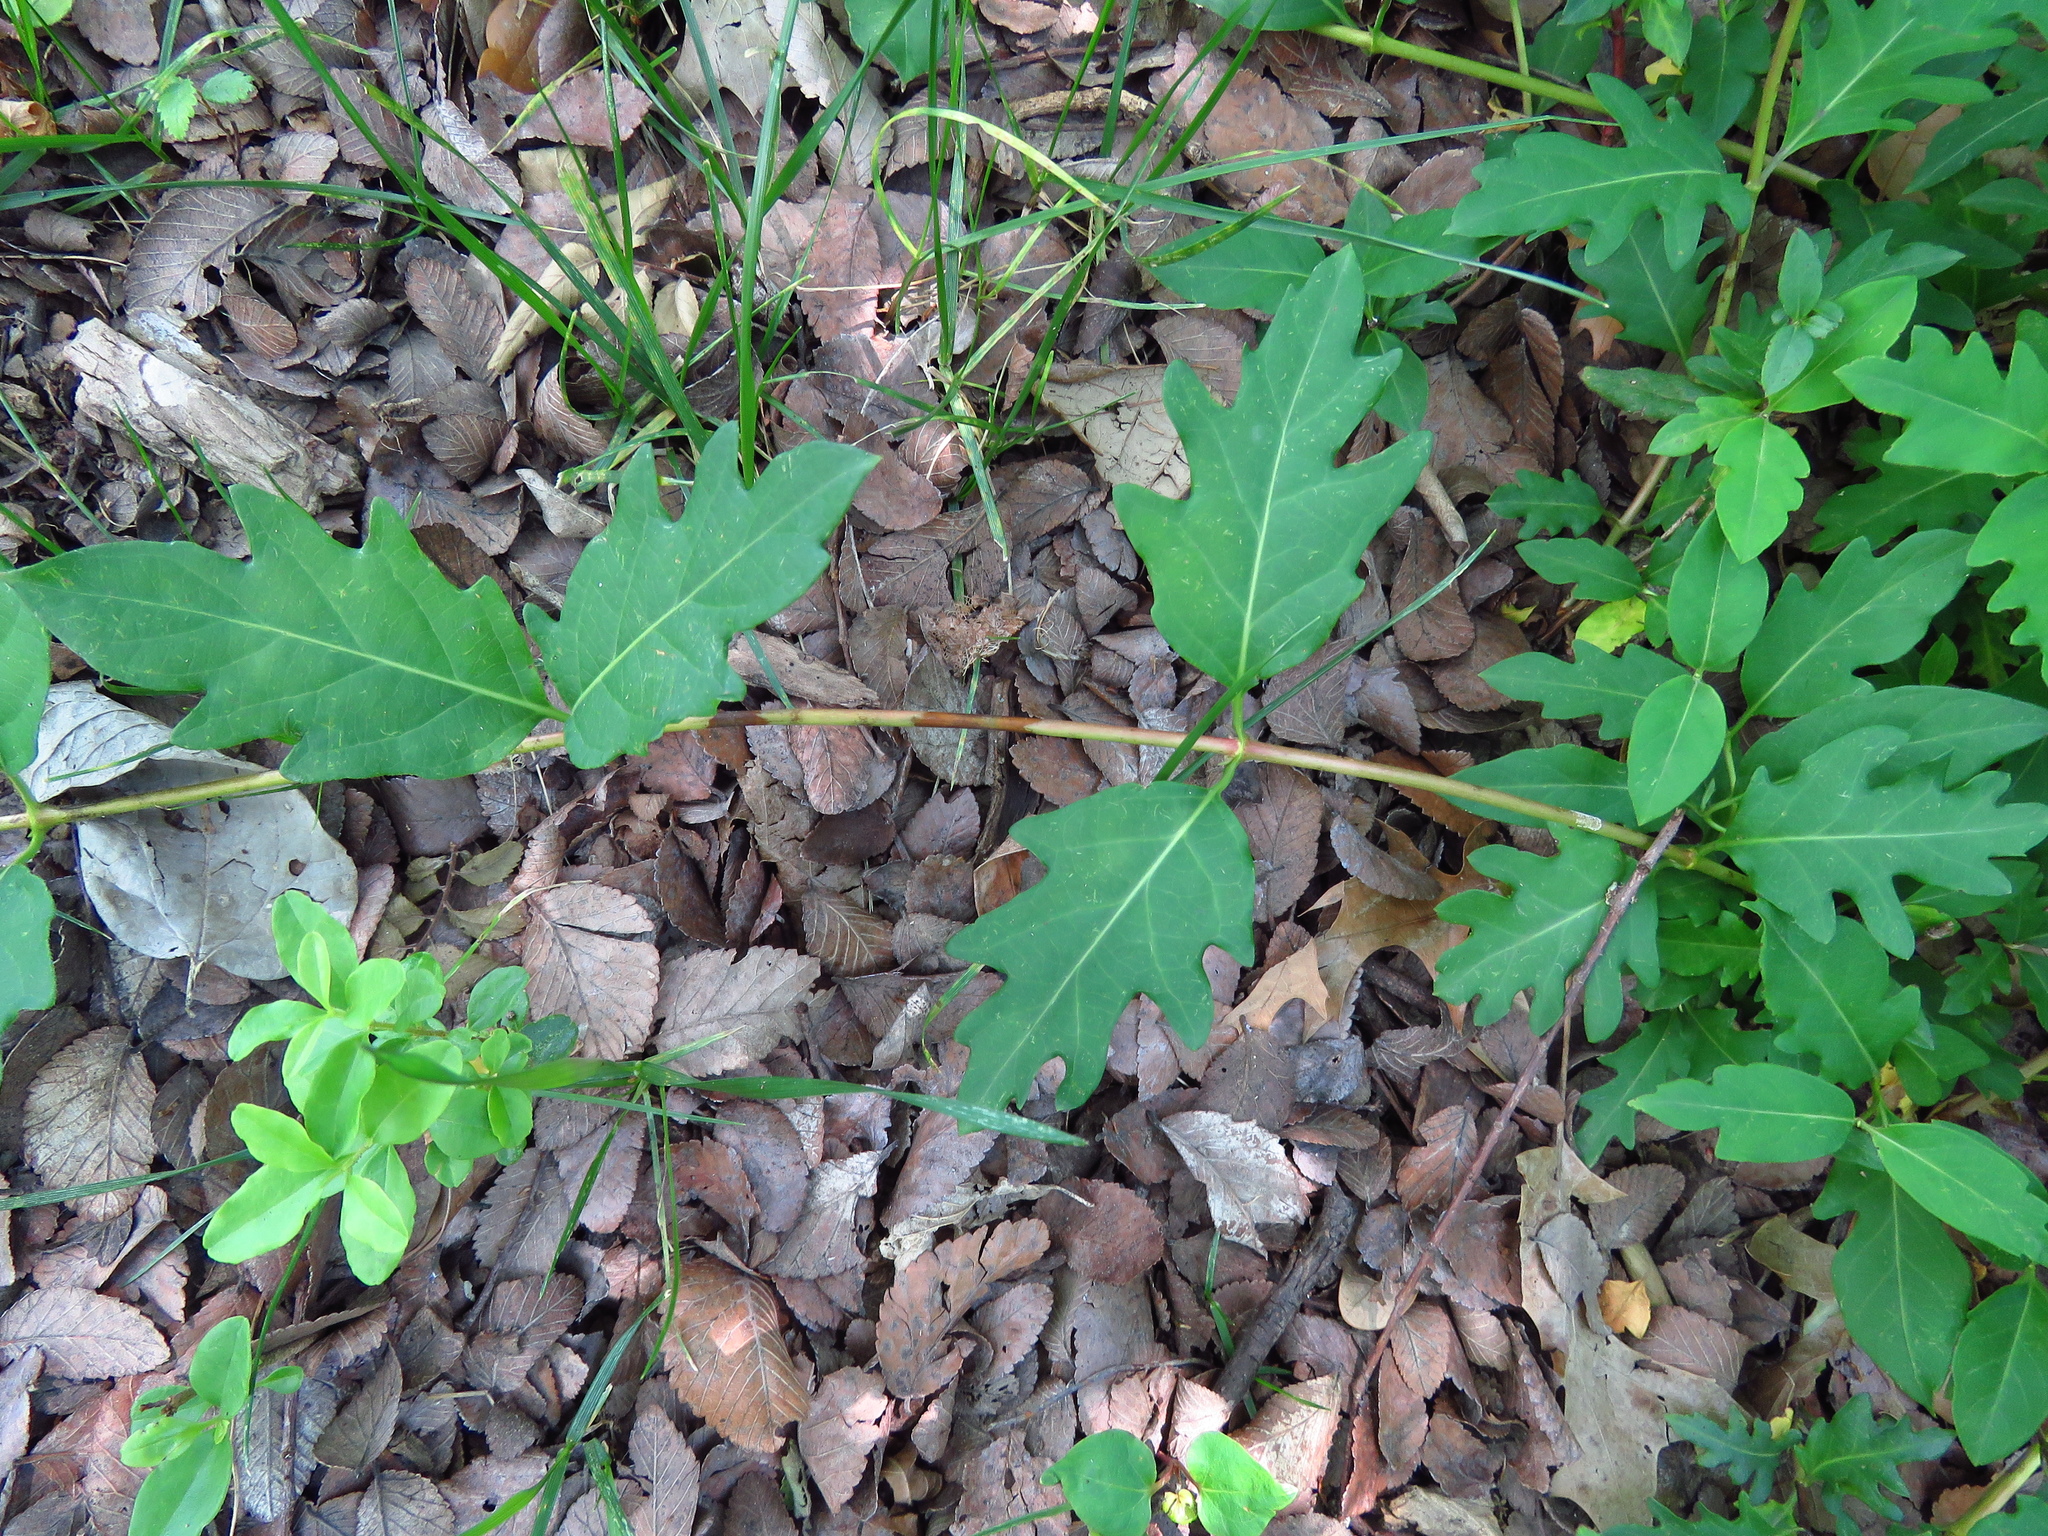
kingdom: Plantae
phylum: Tracheophyta
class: Magnoliopsida
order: Dipsacales
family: Caprifoliaceae
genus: Lonicera
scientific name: Lonicera japonica
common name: Japanese honeysuckle
